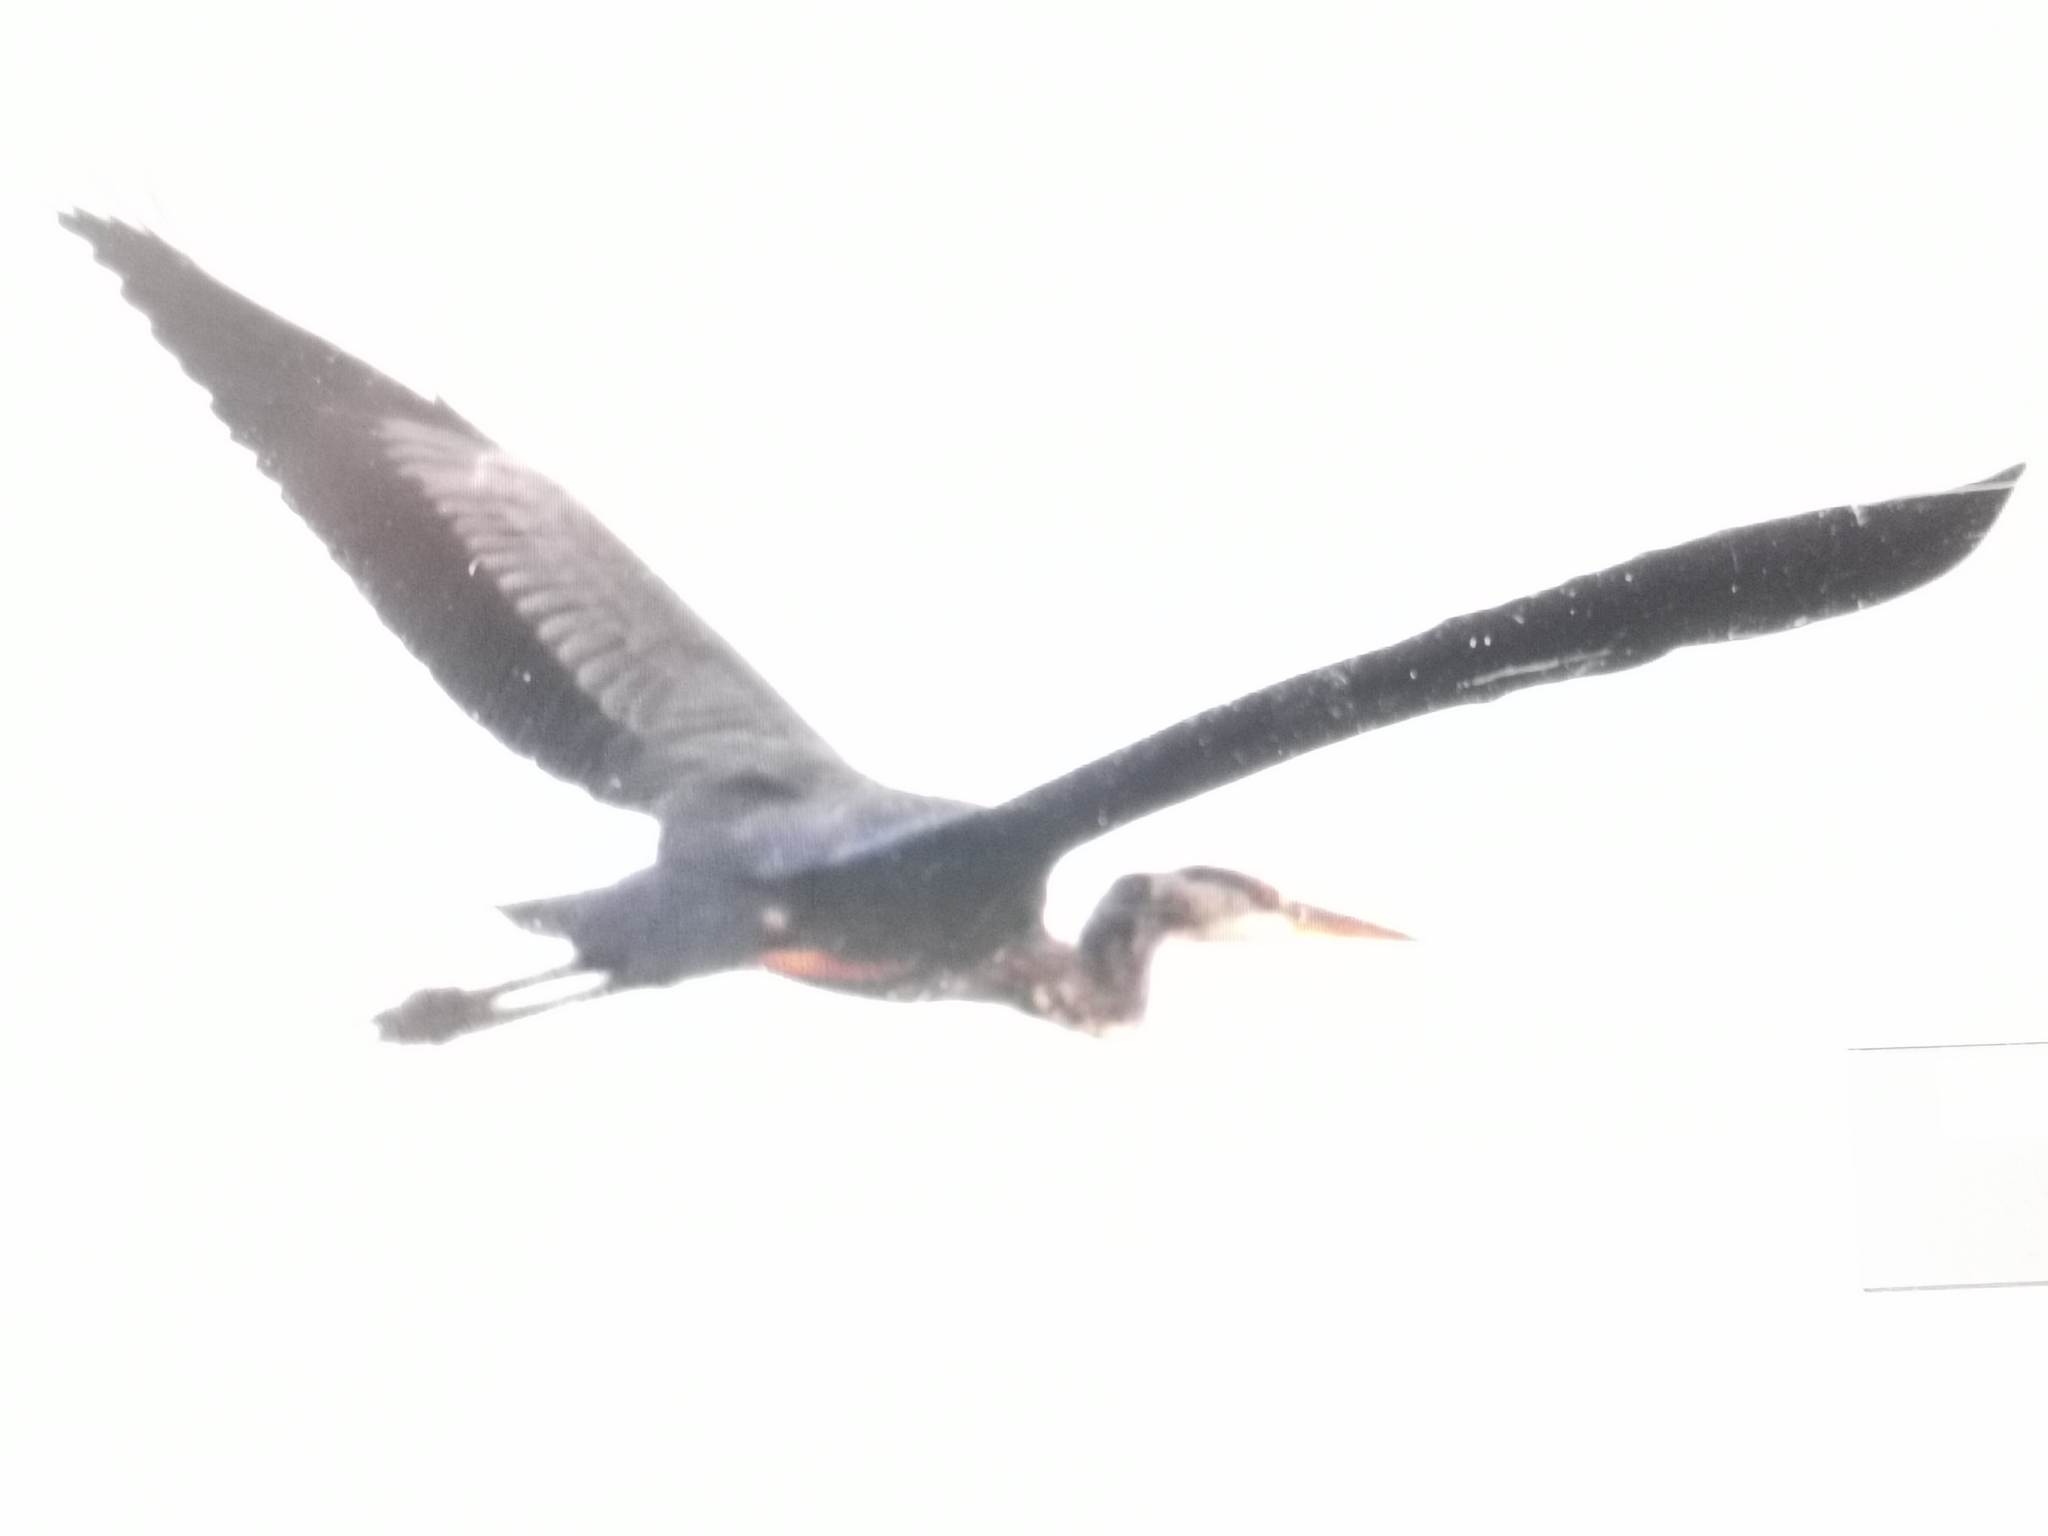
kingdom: Animalia
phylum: Chordata
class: Aves
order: Pelecaniformes
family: Ardeidae
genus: Ardea
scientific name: Ardea cinerea
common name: Grey heron
